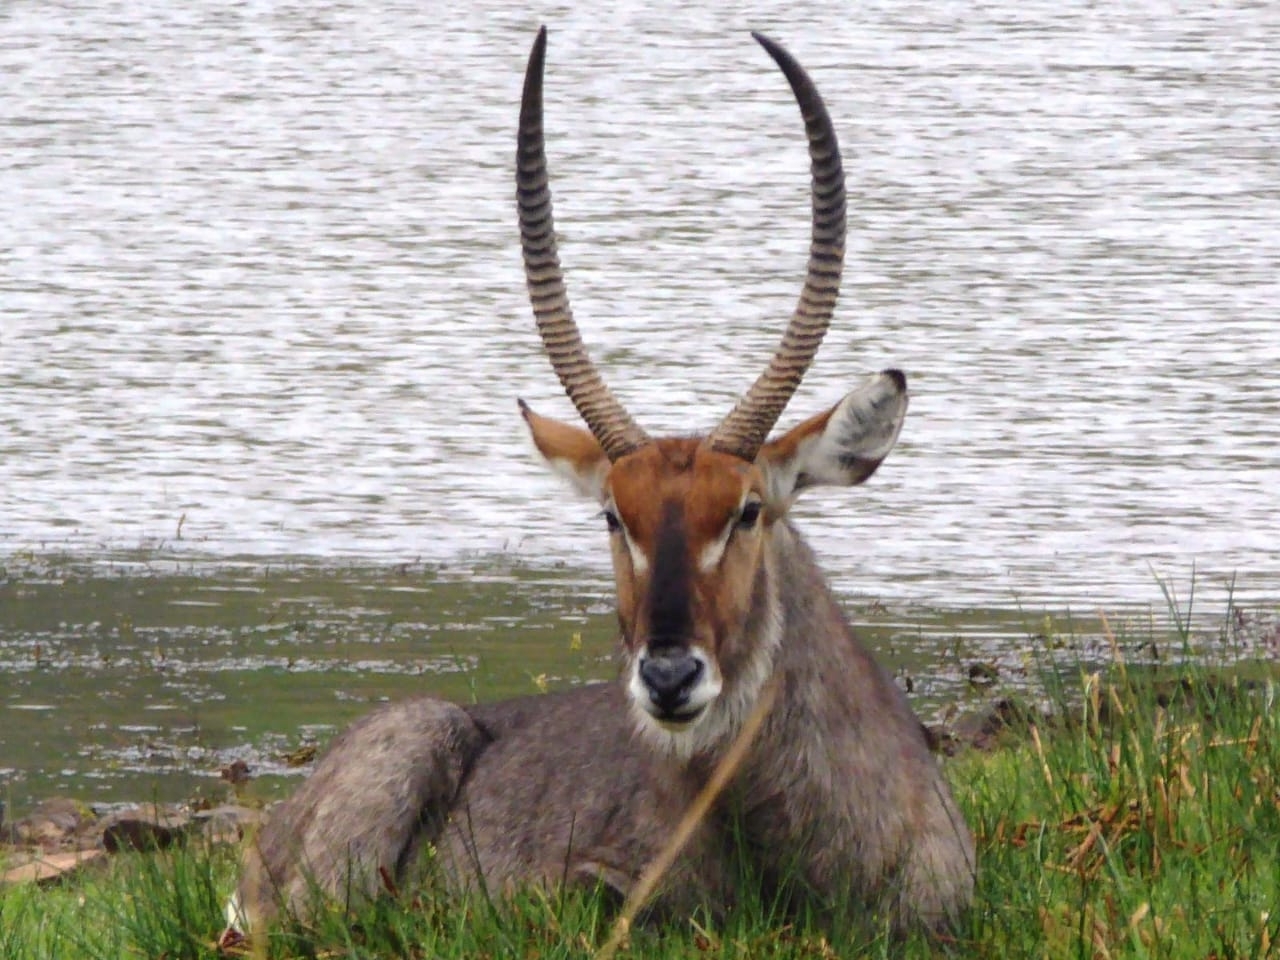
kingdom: Animalia
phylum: Chordata
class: Mammalia
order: Artiodactyla
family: Bovidae
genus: Kobus
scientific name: Kobus ellipsiprymnus
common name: Waterbuck
